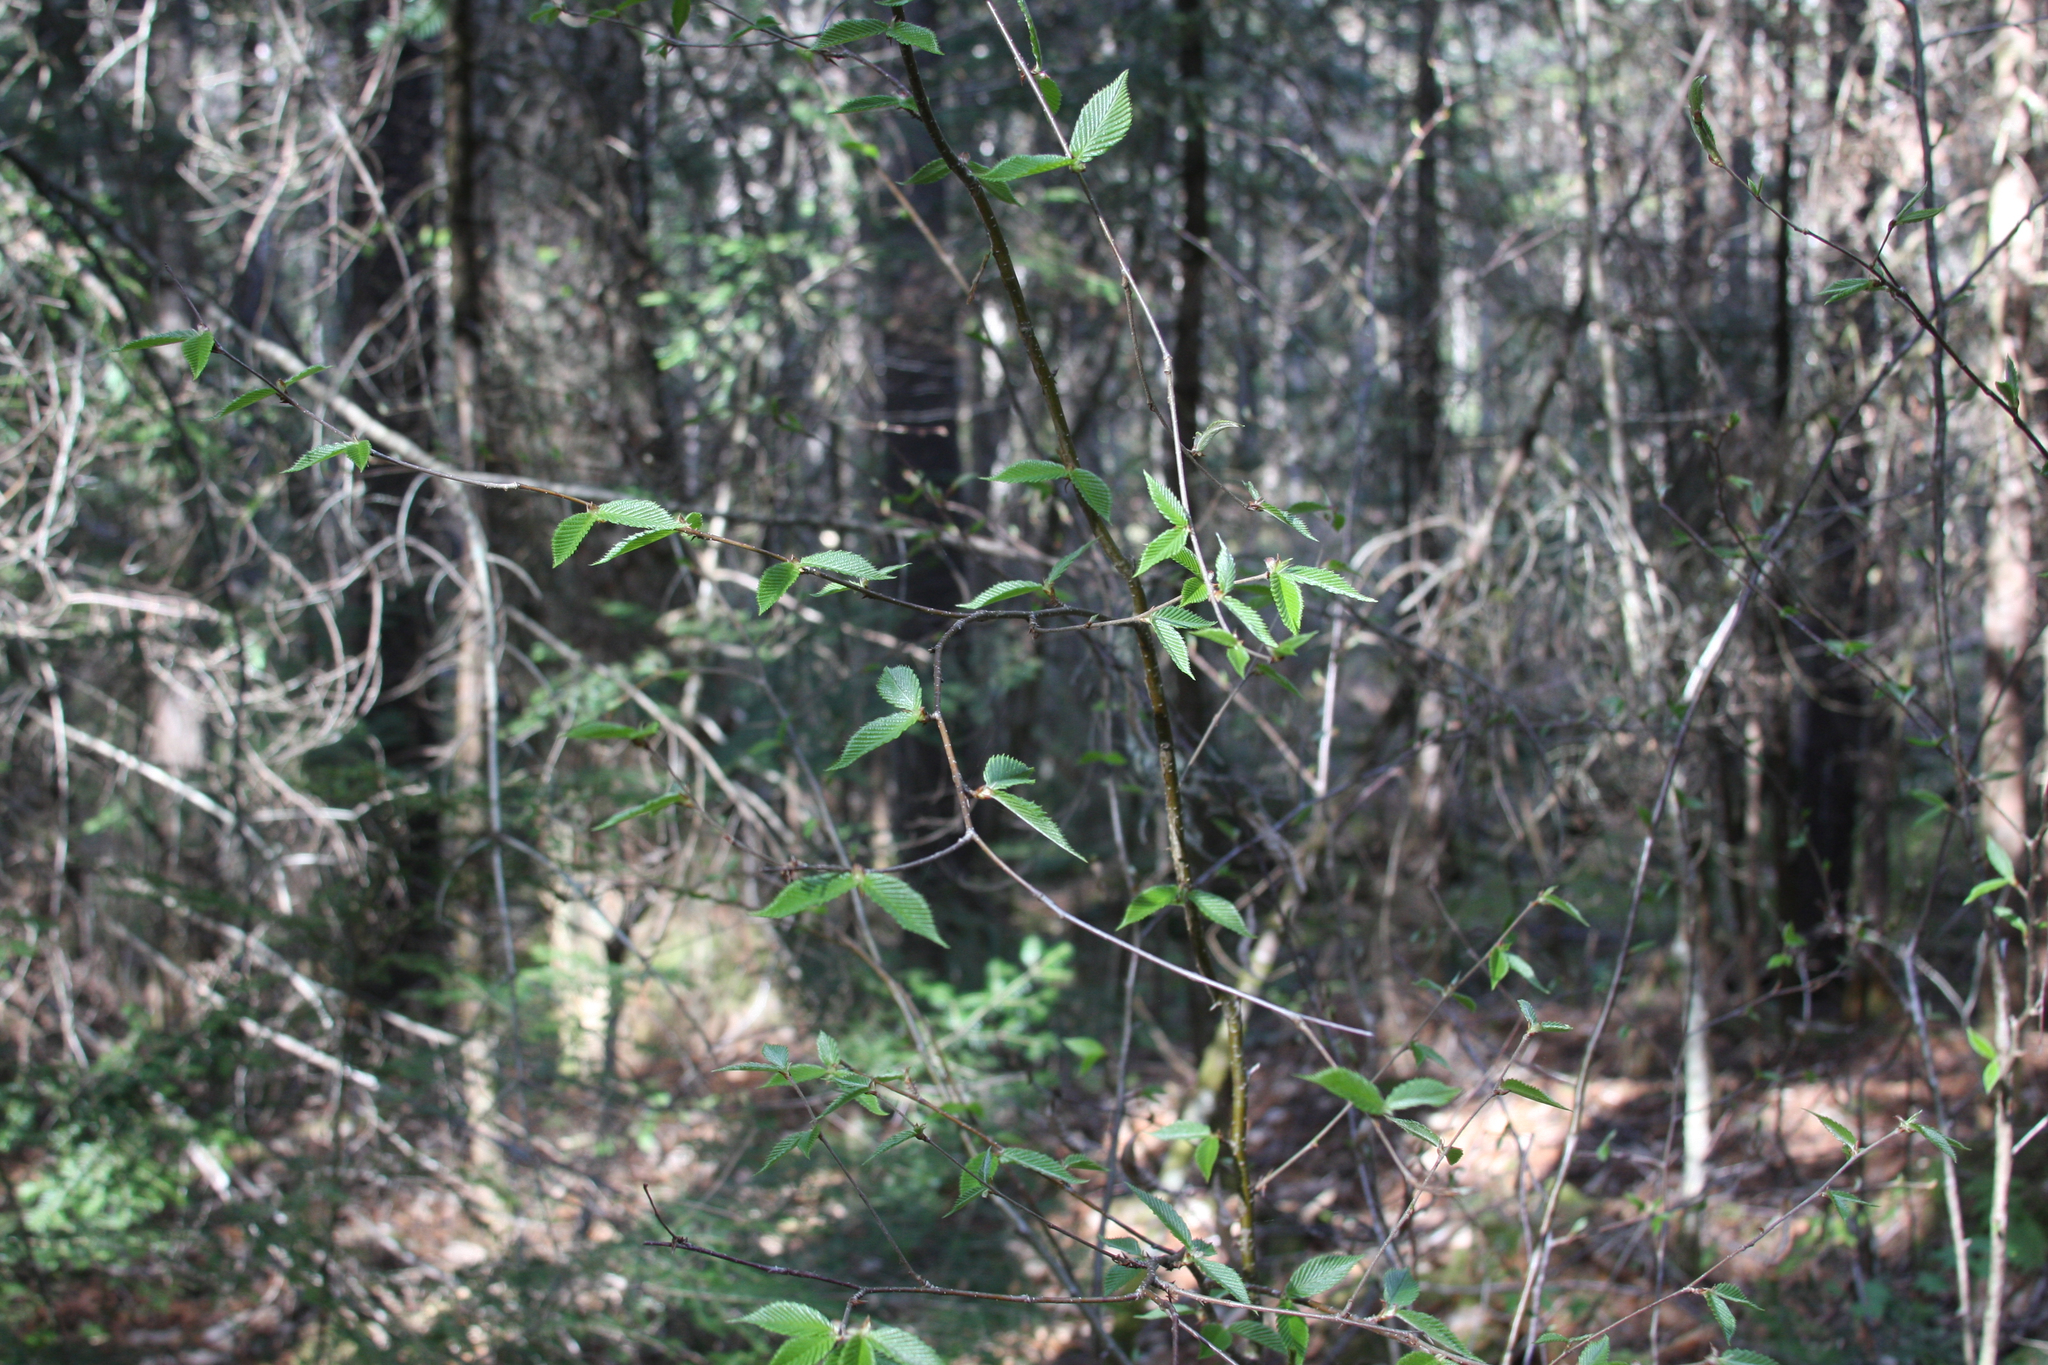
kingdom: Plantae
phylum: Tracheophyta
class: Magnoliopsida
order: Fagales
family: Fagaceae
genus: Fagus
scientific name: Fagus grandifolia
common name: American beech
